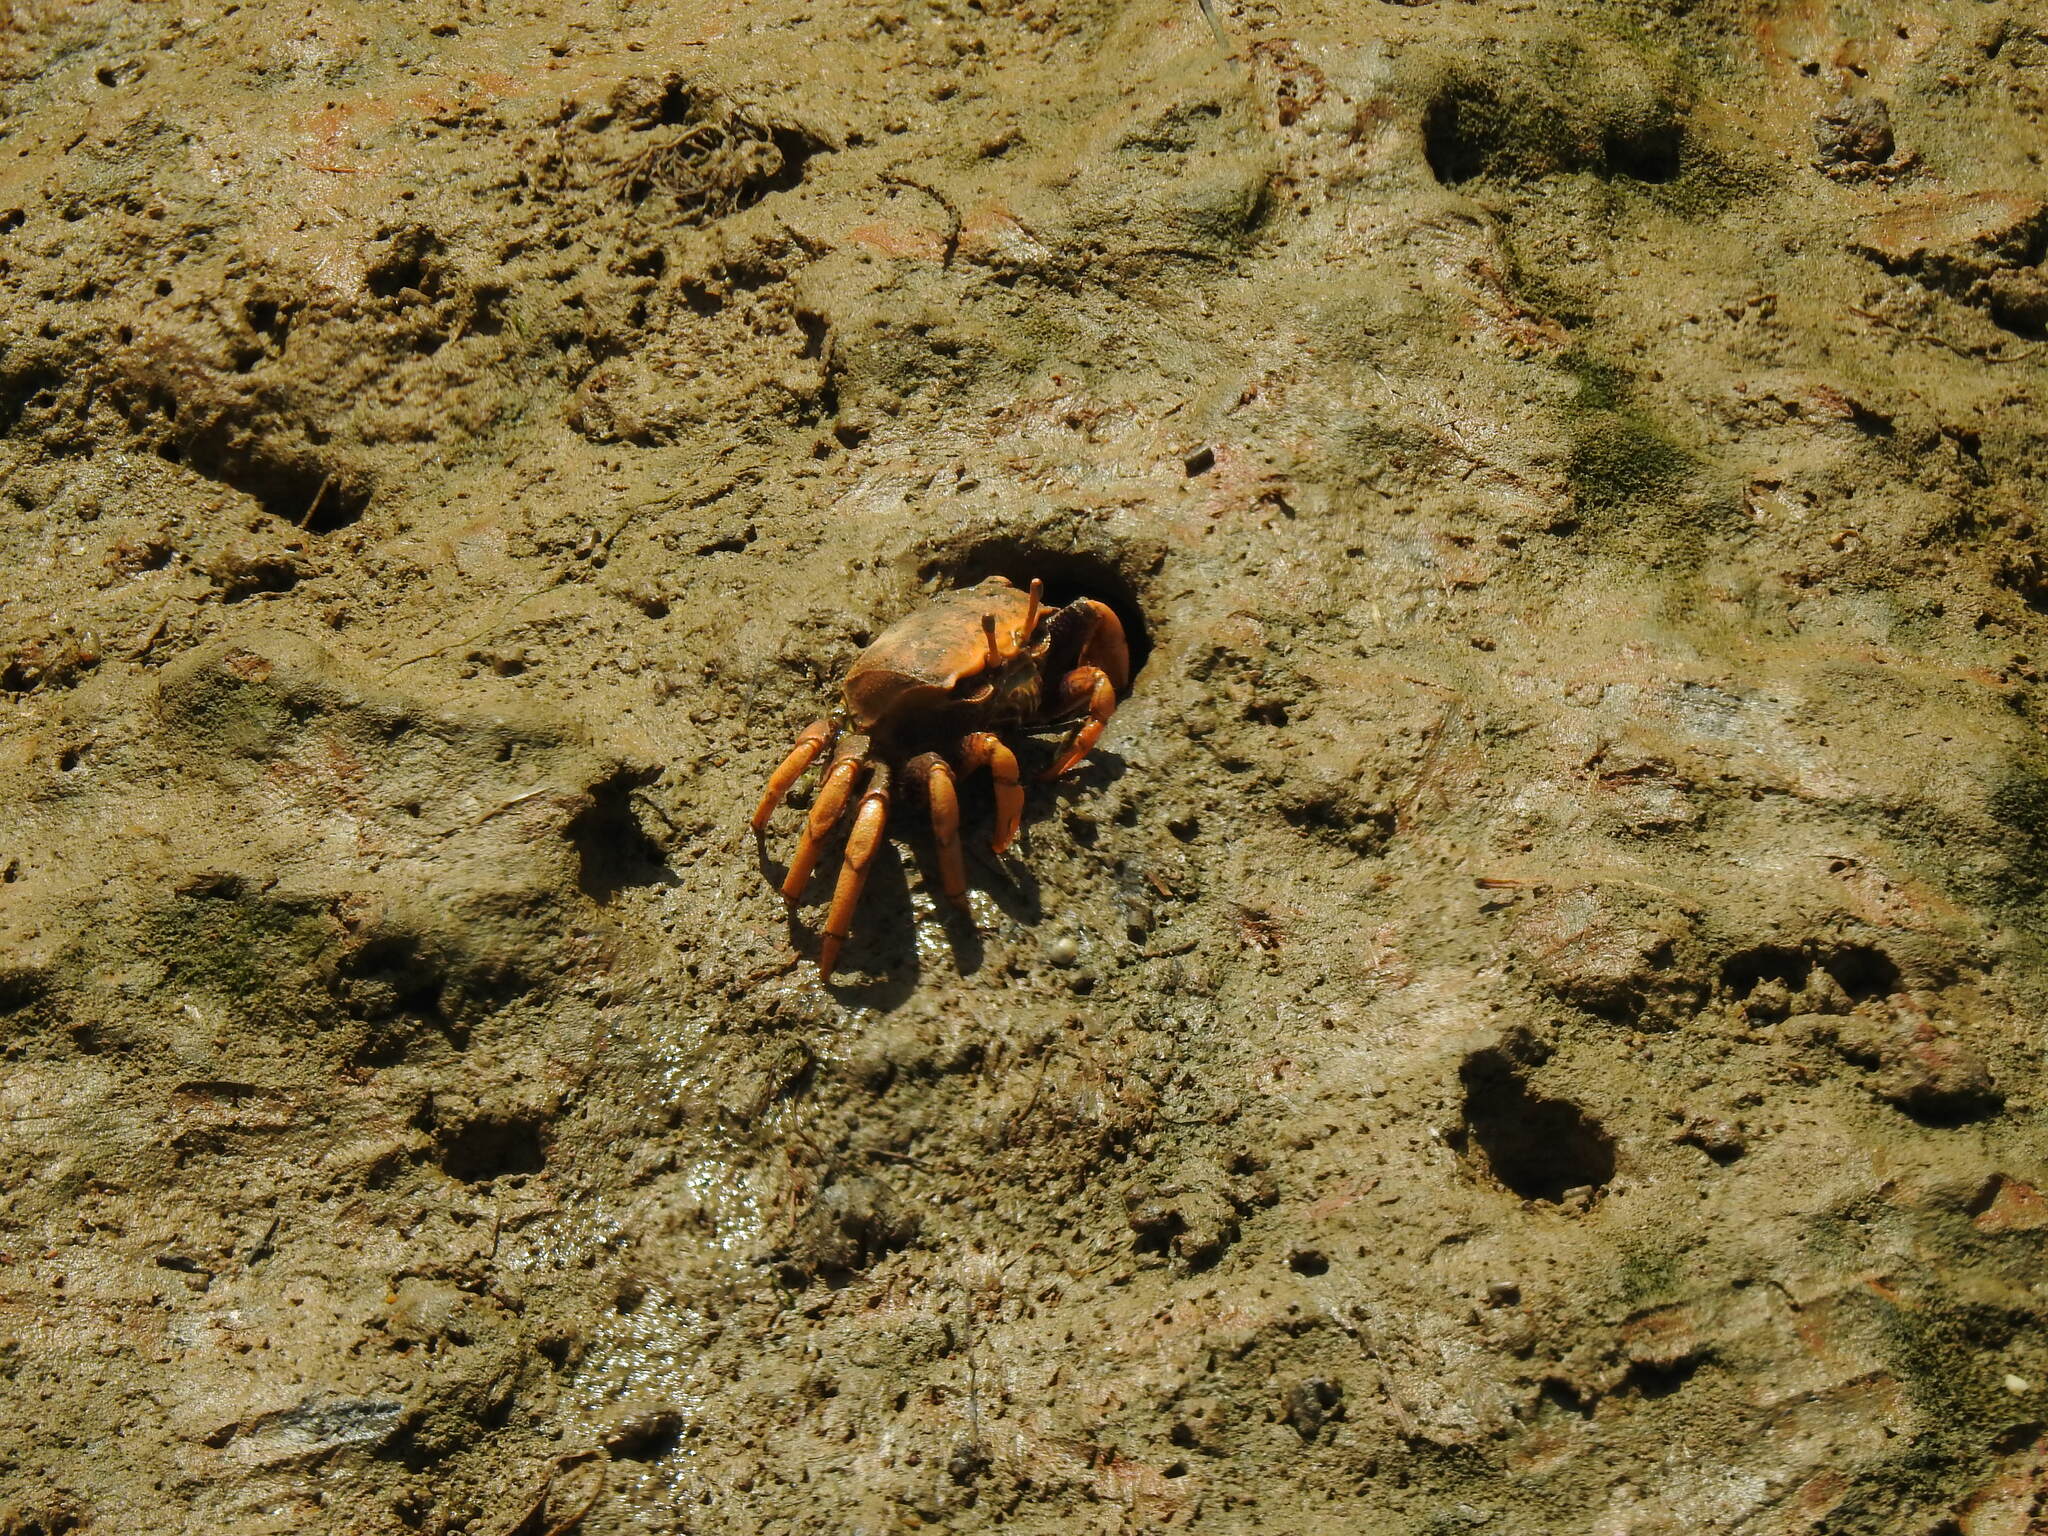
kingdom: Animalia
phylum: Arthropoda
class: Malacostraca
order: Decapoda
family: Ocypodidae
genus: Afruca
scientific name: Afruca tangeri
